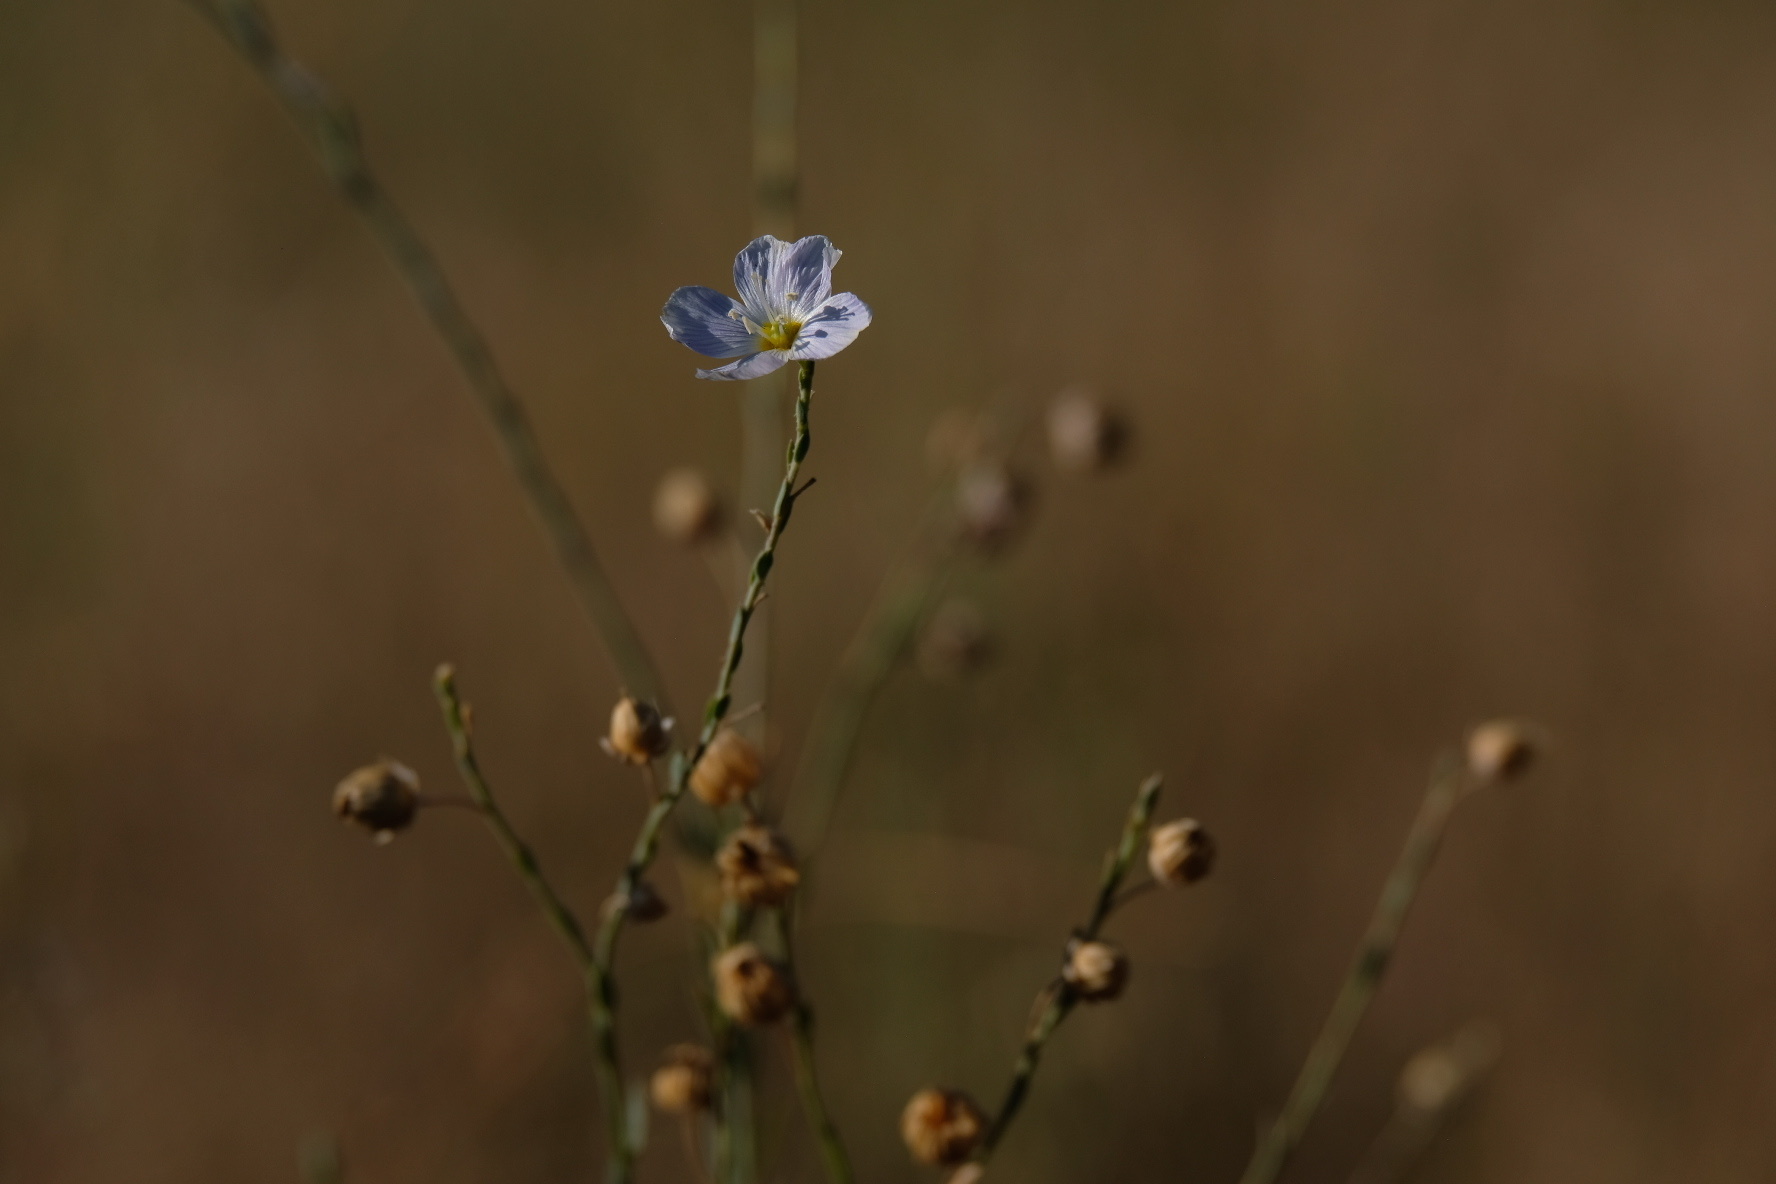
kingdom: Plantae
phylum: Tracheophyta
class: Magnoliopsida
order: Malpighiales
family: Linaceae
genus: Linum
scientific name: Linum lewisii
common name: Prairie flax
